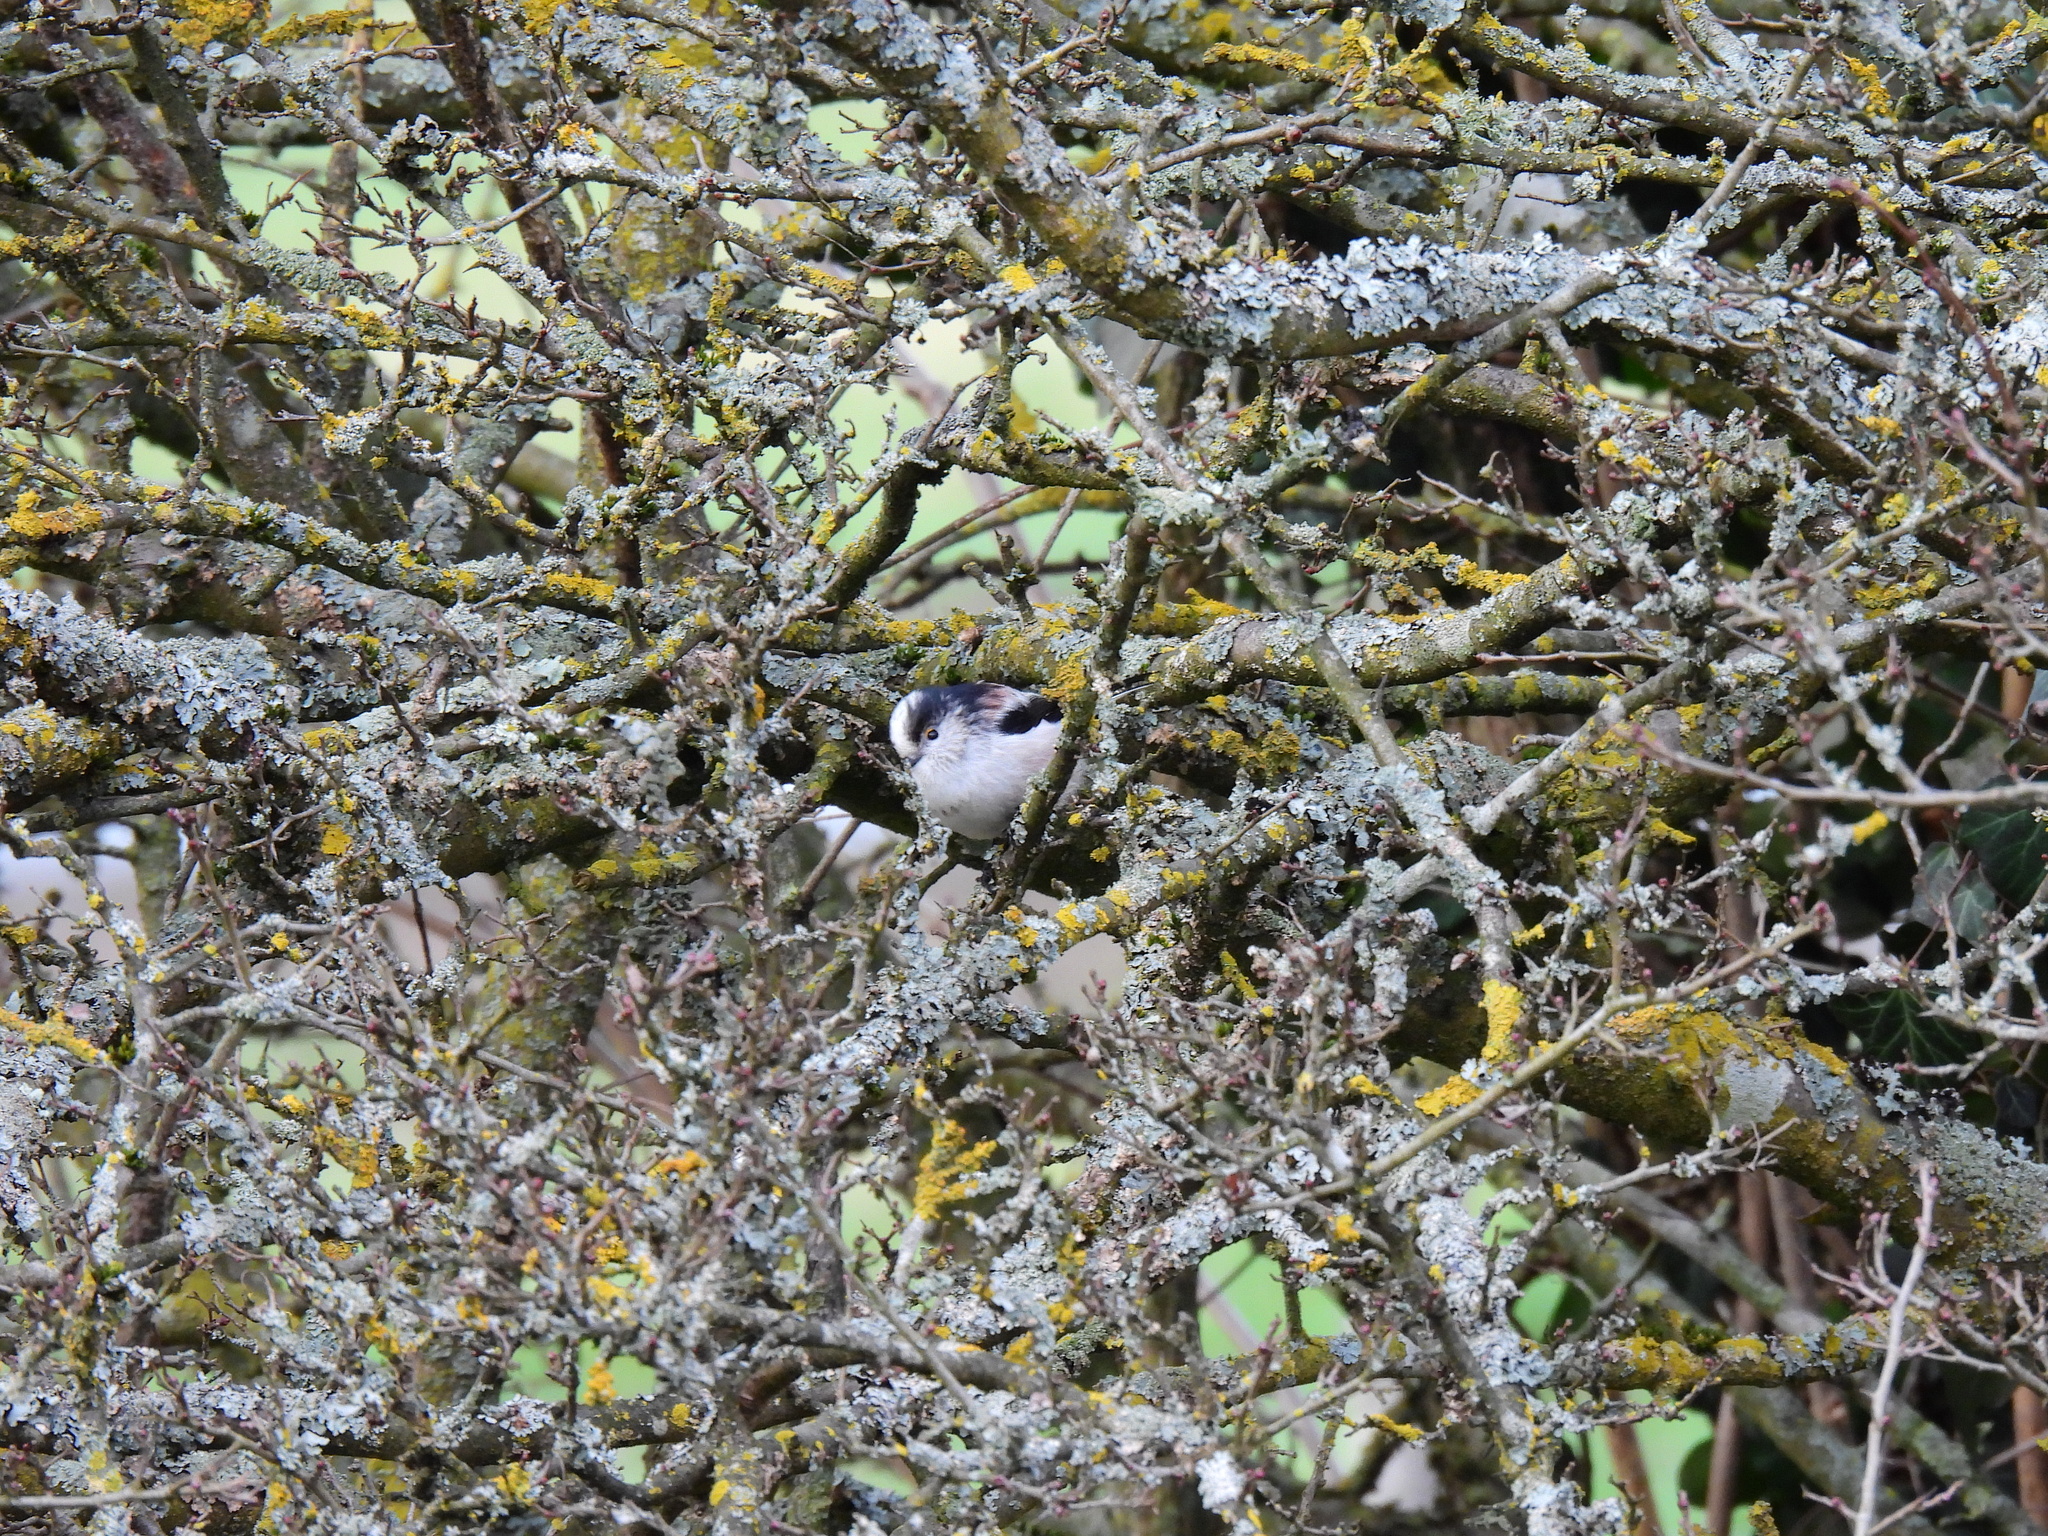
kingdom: Animalia
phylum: Chordata
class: Aves
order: Passeriformes
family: Aegithalidae
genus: Aegithalos
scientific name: Aegithalos caudatus
